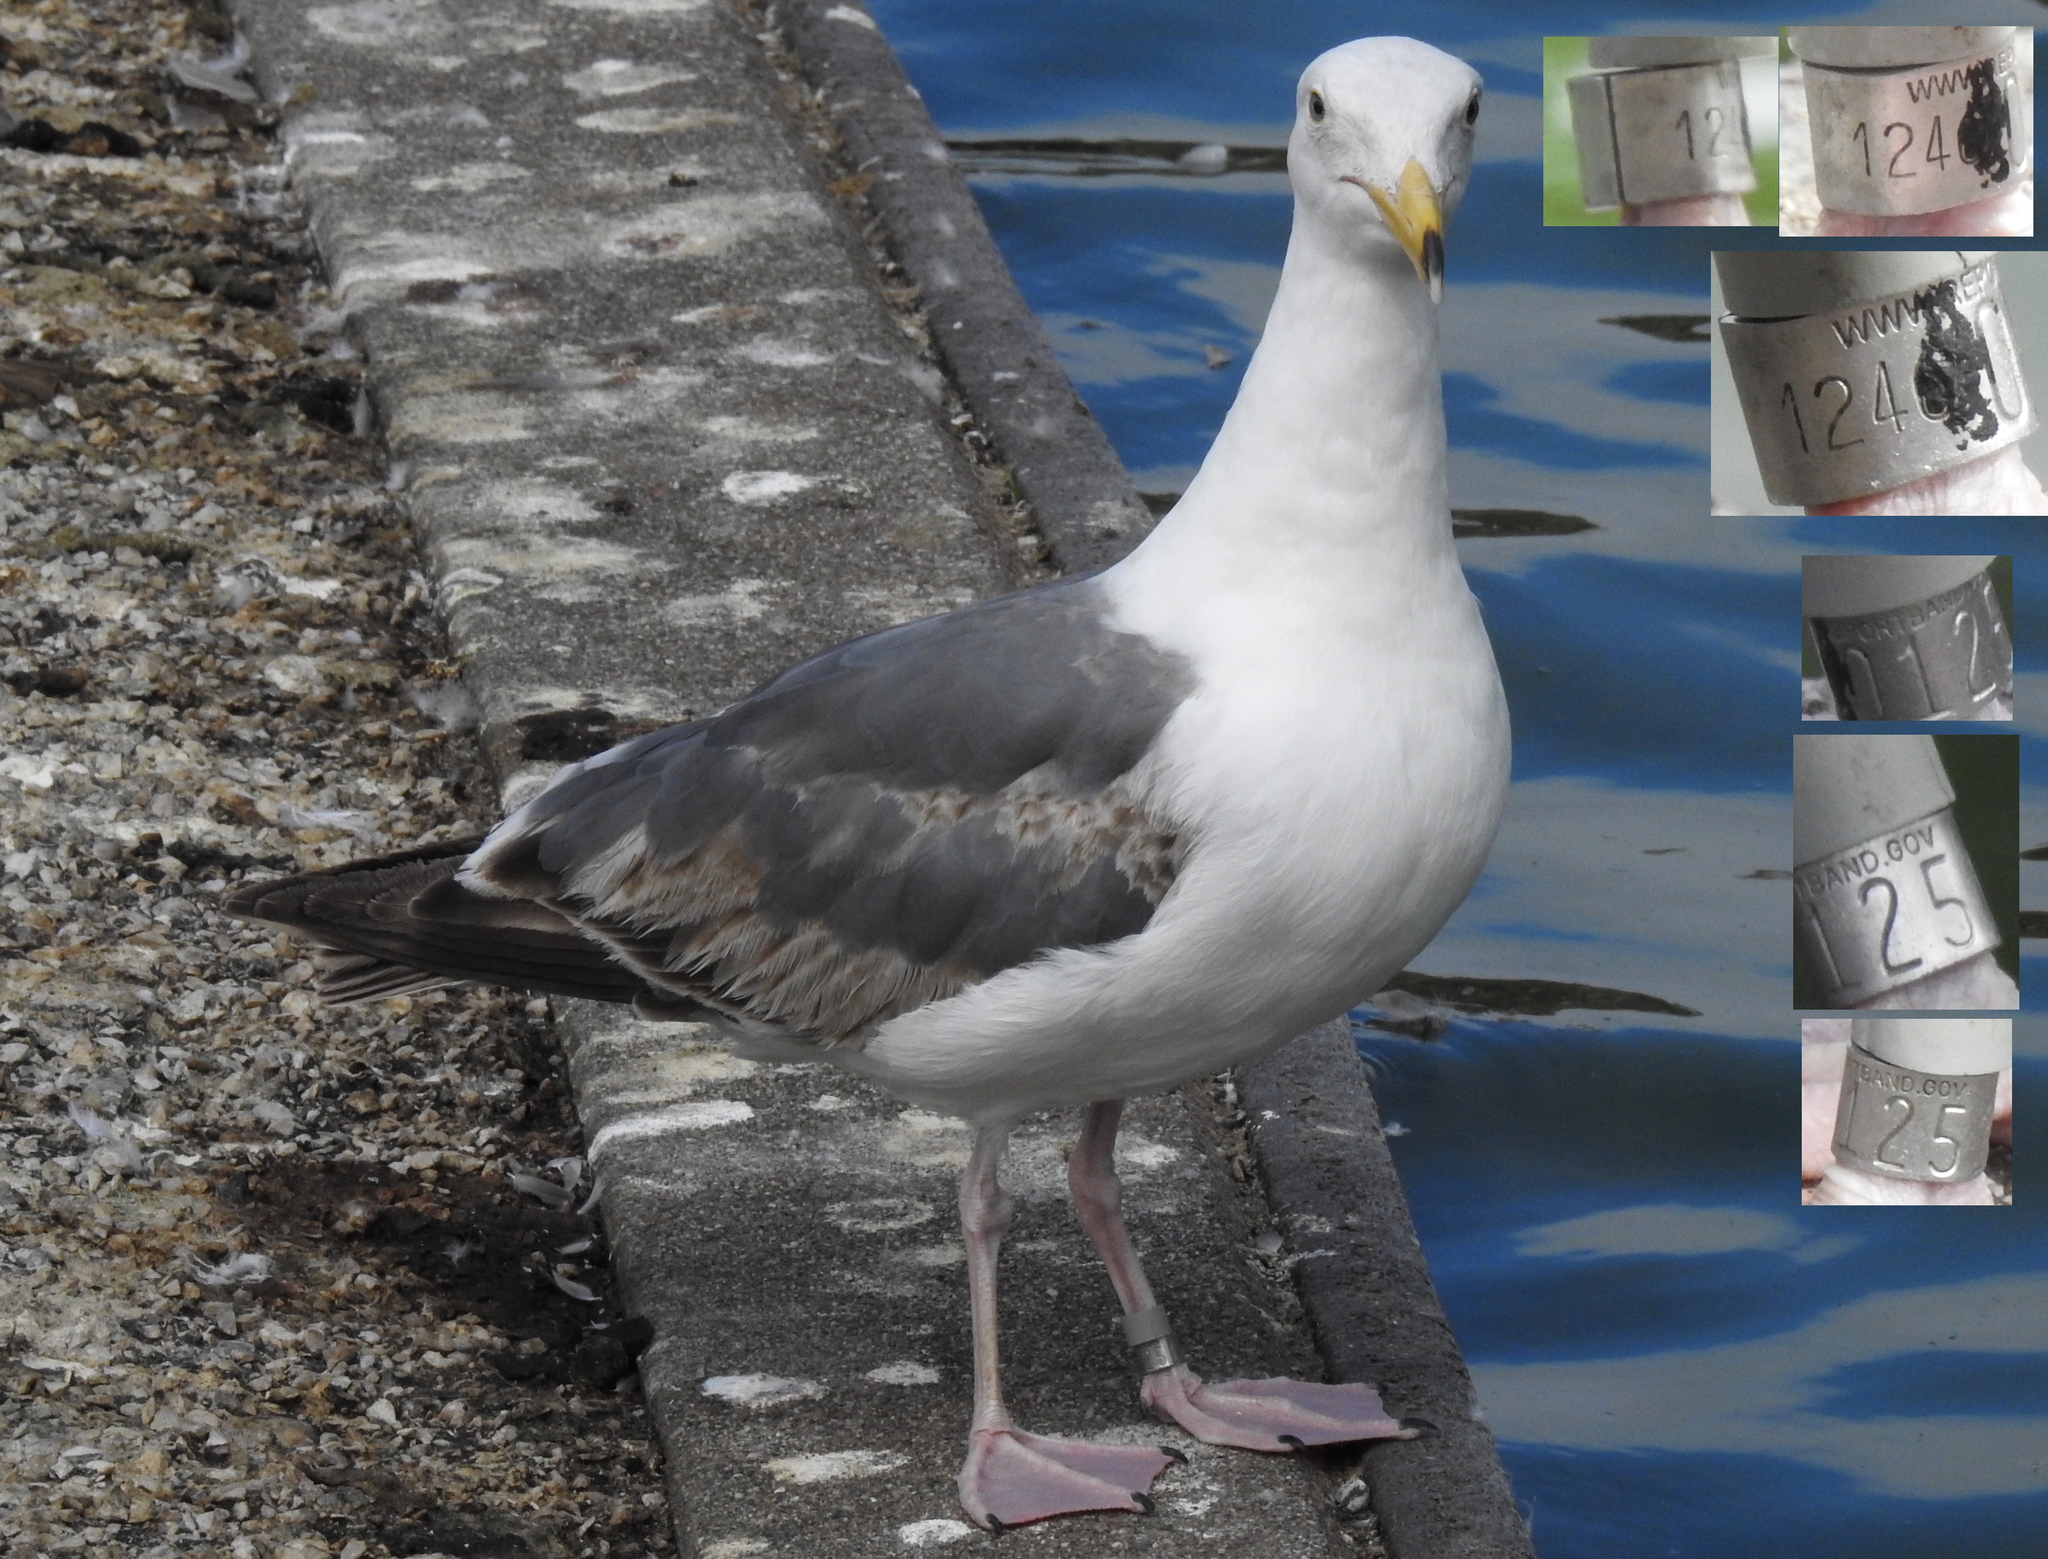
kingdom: Animalia
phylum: Chordata
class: Aves
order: Charadriiformes
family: Laridae
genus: Larus
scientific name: Larus occidentalis
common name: Western gull
